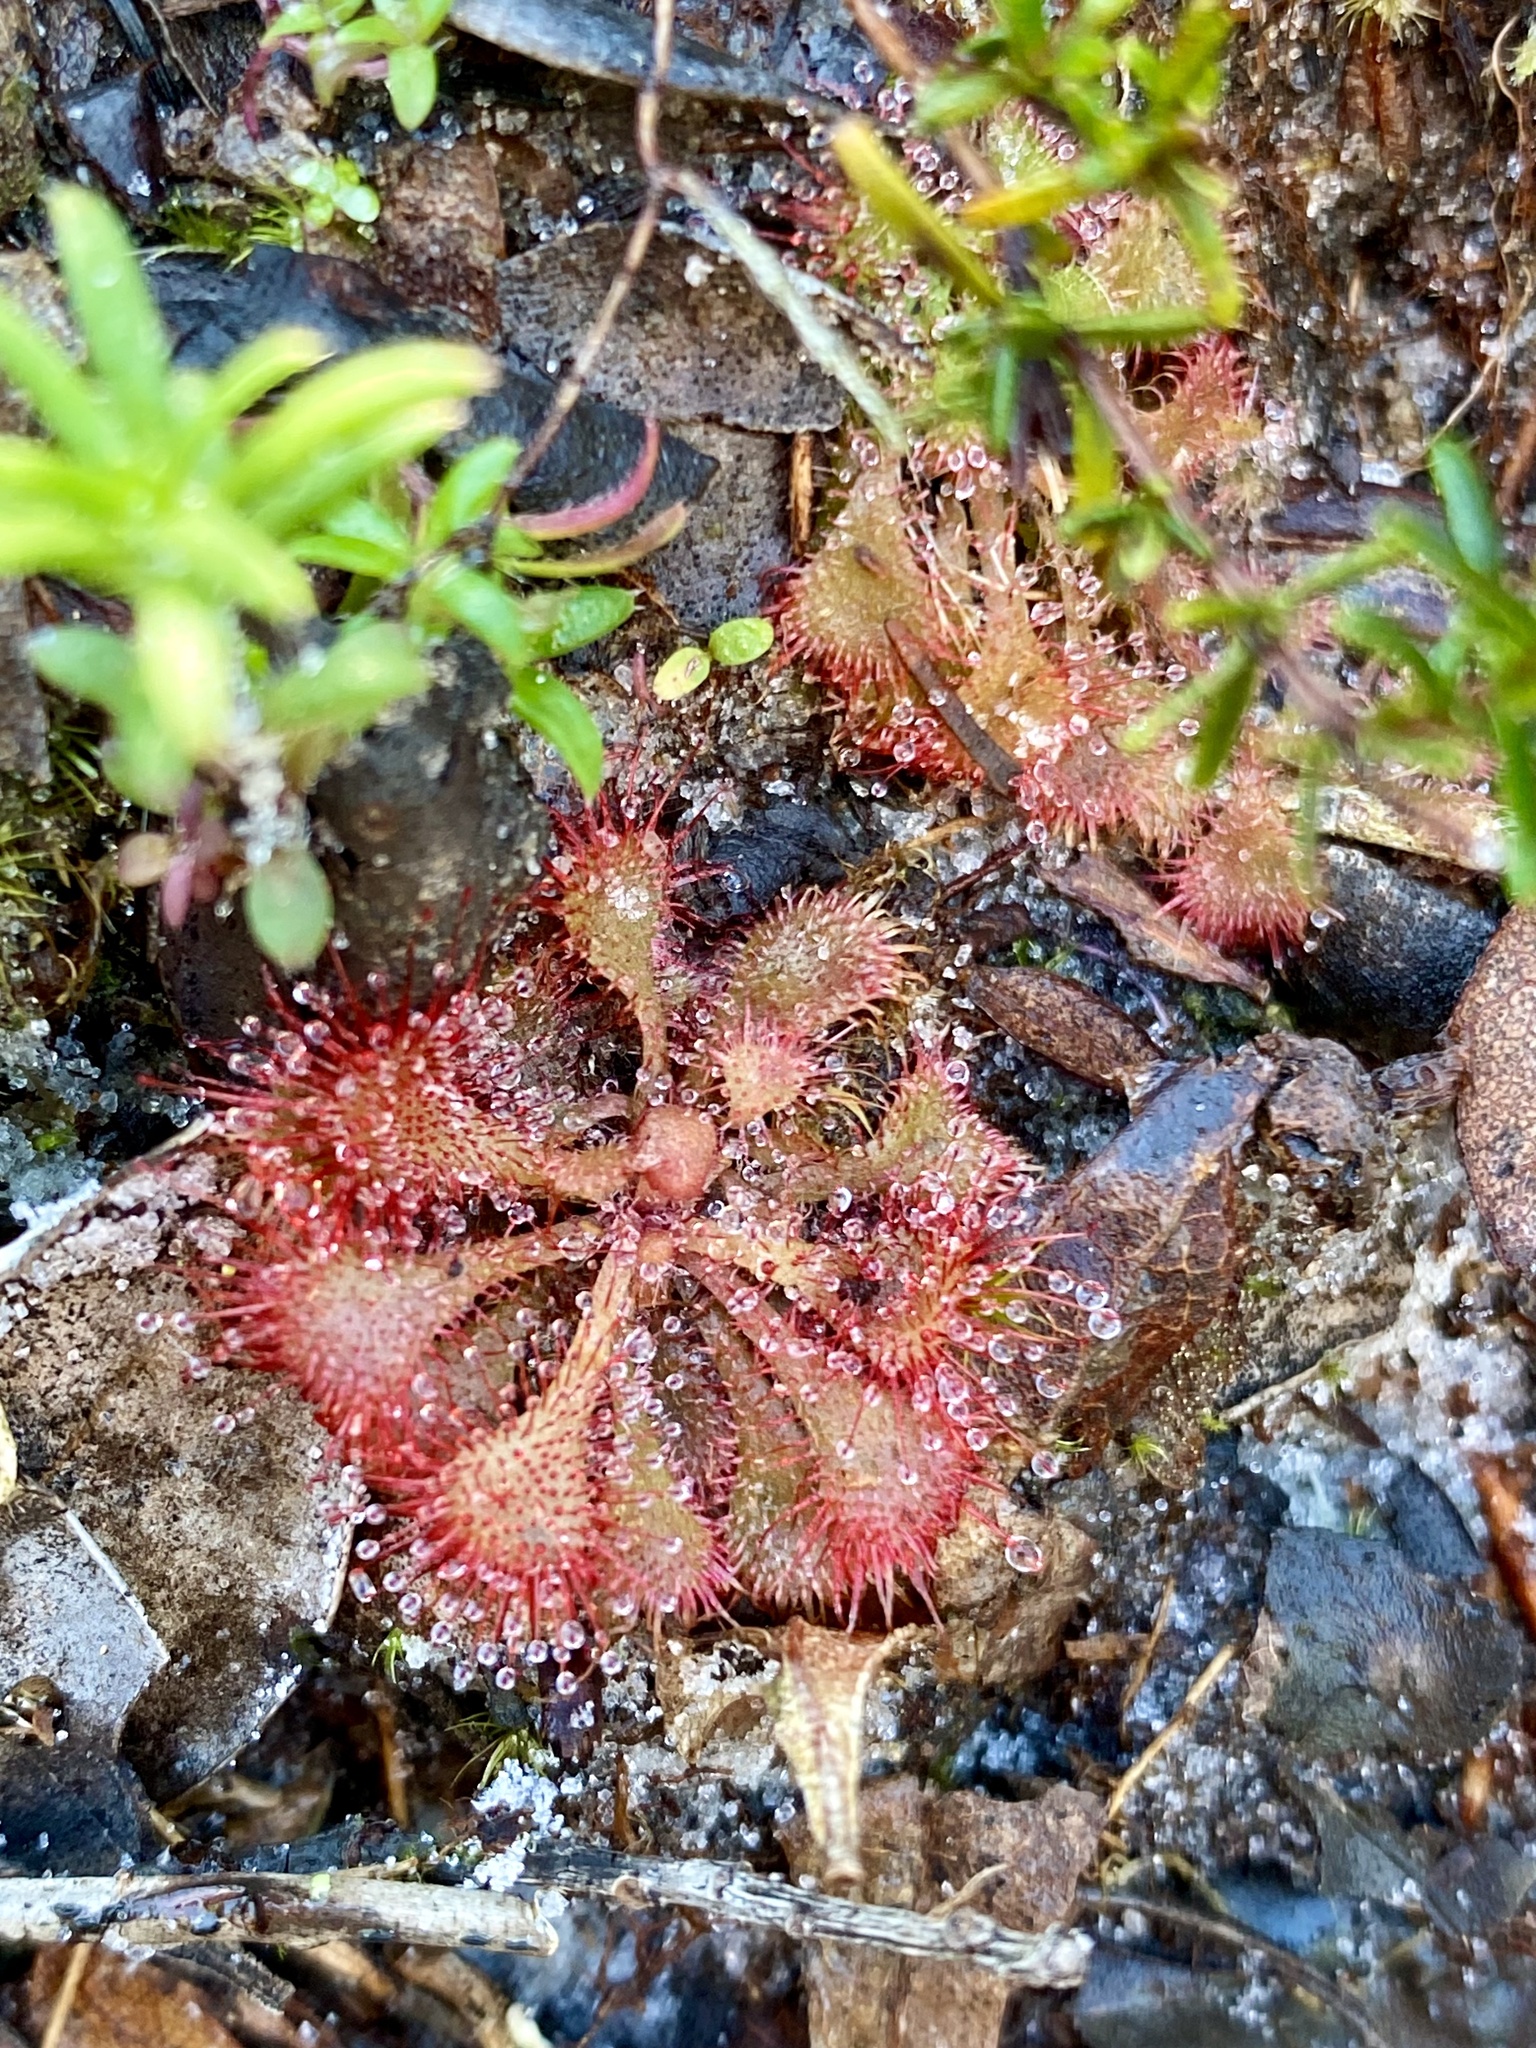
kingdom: Plantae
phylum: Tracheophyta
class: Magnoliopsida
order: Caryophyllales
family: Droseraceae
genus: Drosera
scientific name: Drosera brevifolia
